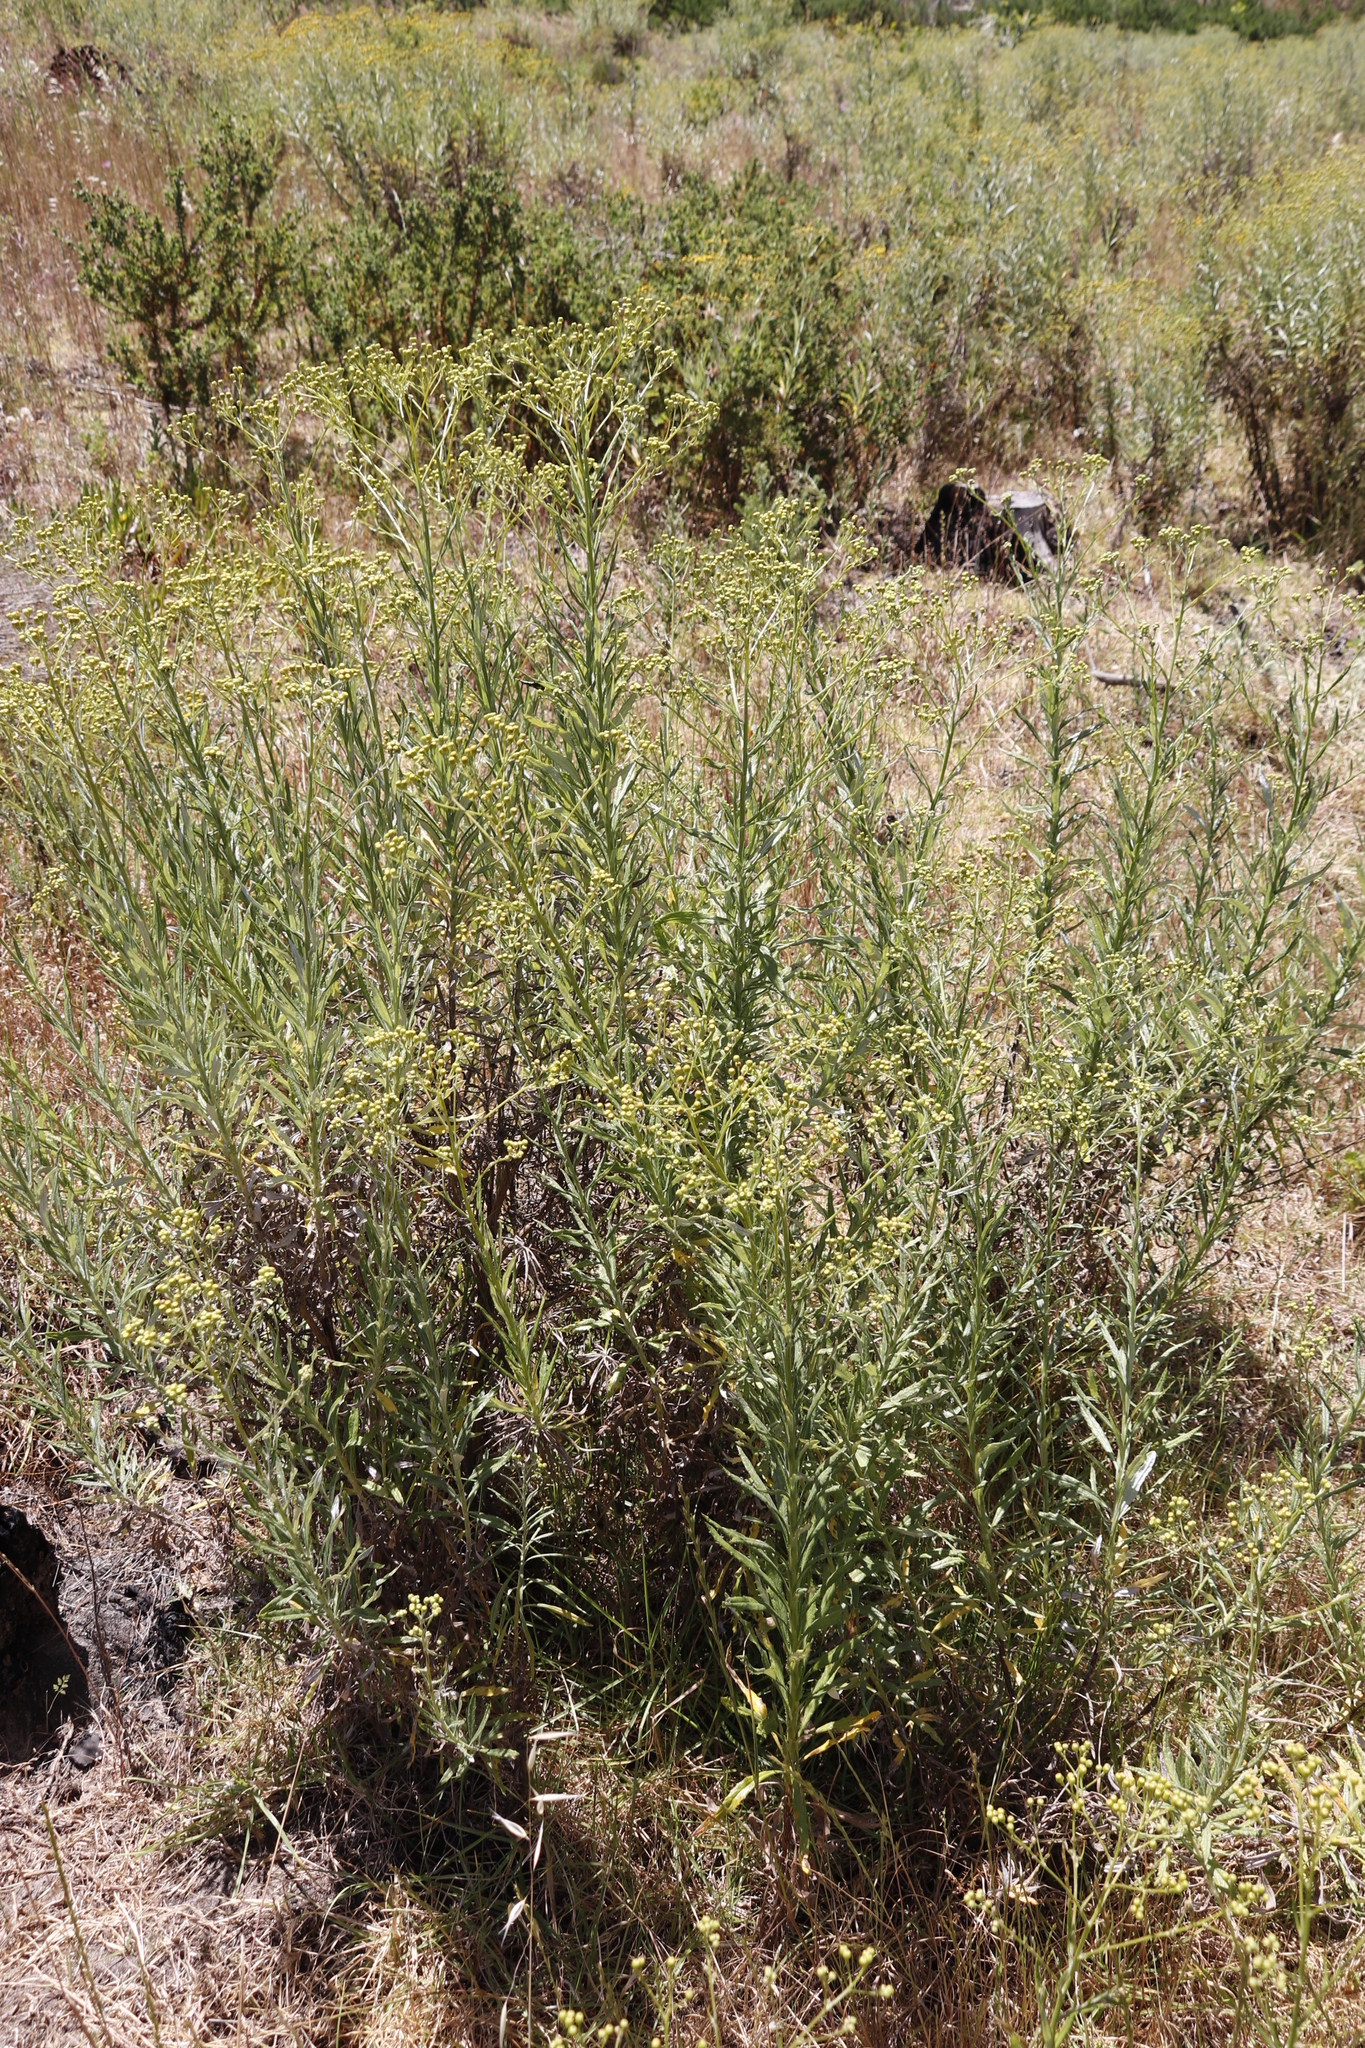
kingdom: Plantae
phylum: Tracheophyta
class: Magnoliopsida
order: Asterales
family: Asteraceae
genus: Senecio
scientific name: Senecio pterophorus
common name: Shoddy ragwort
